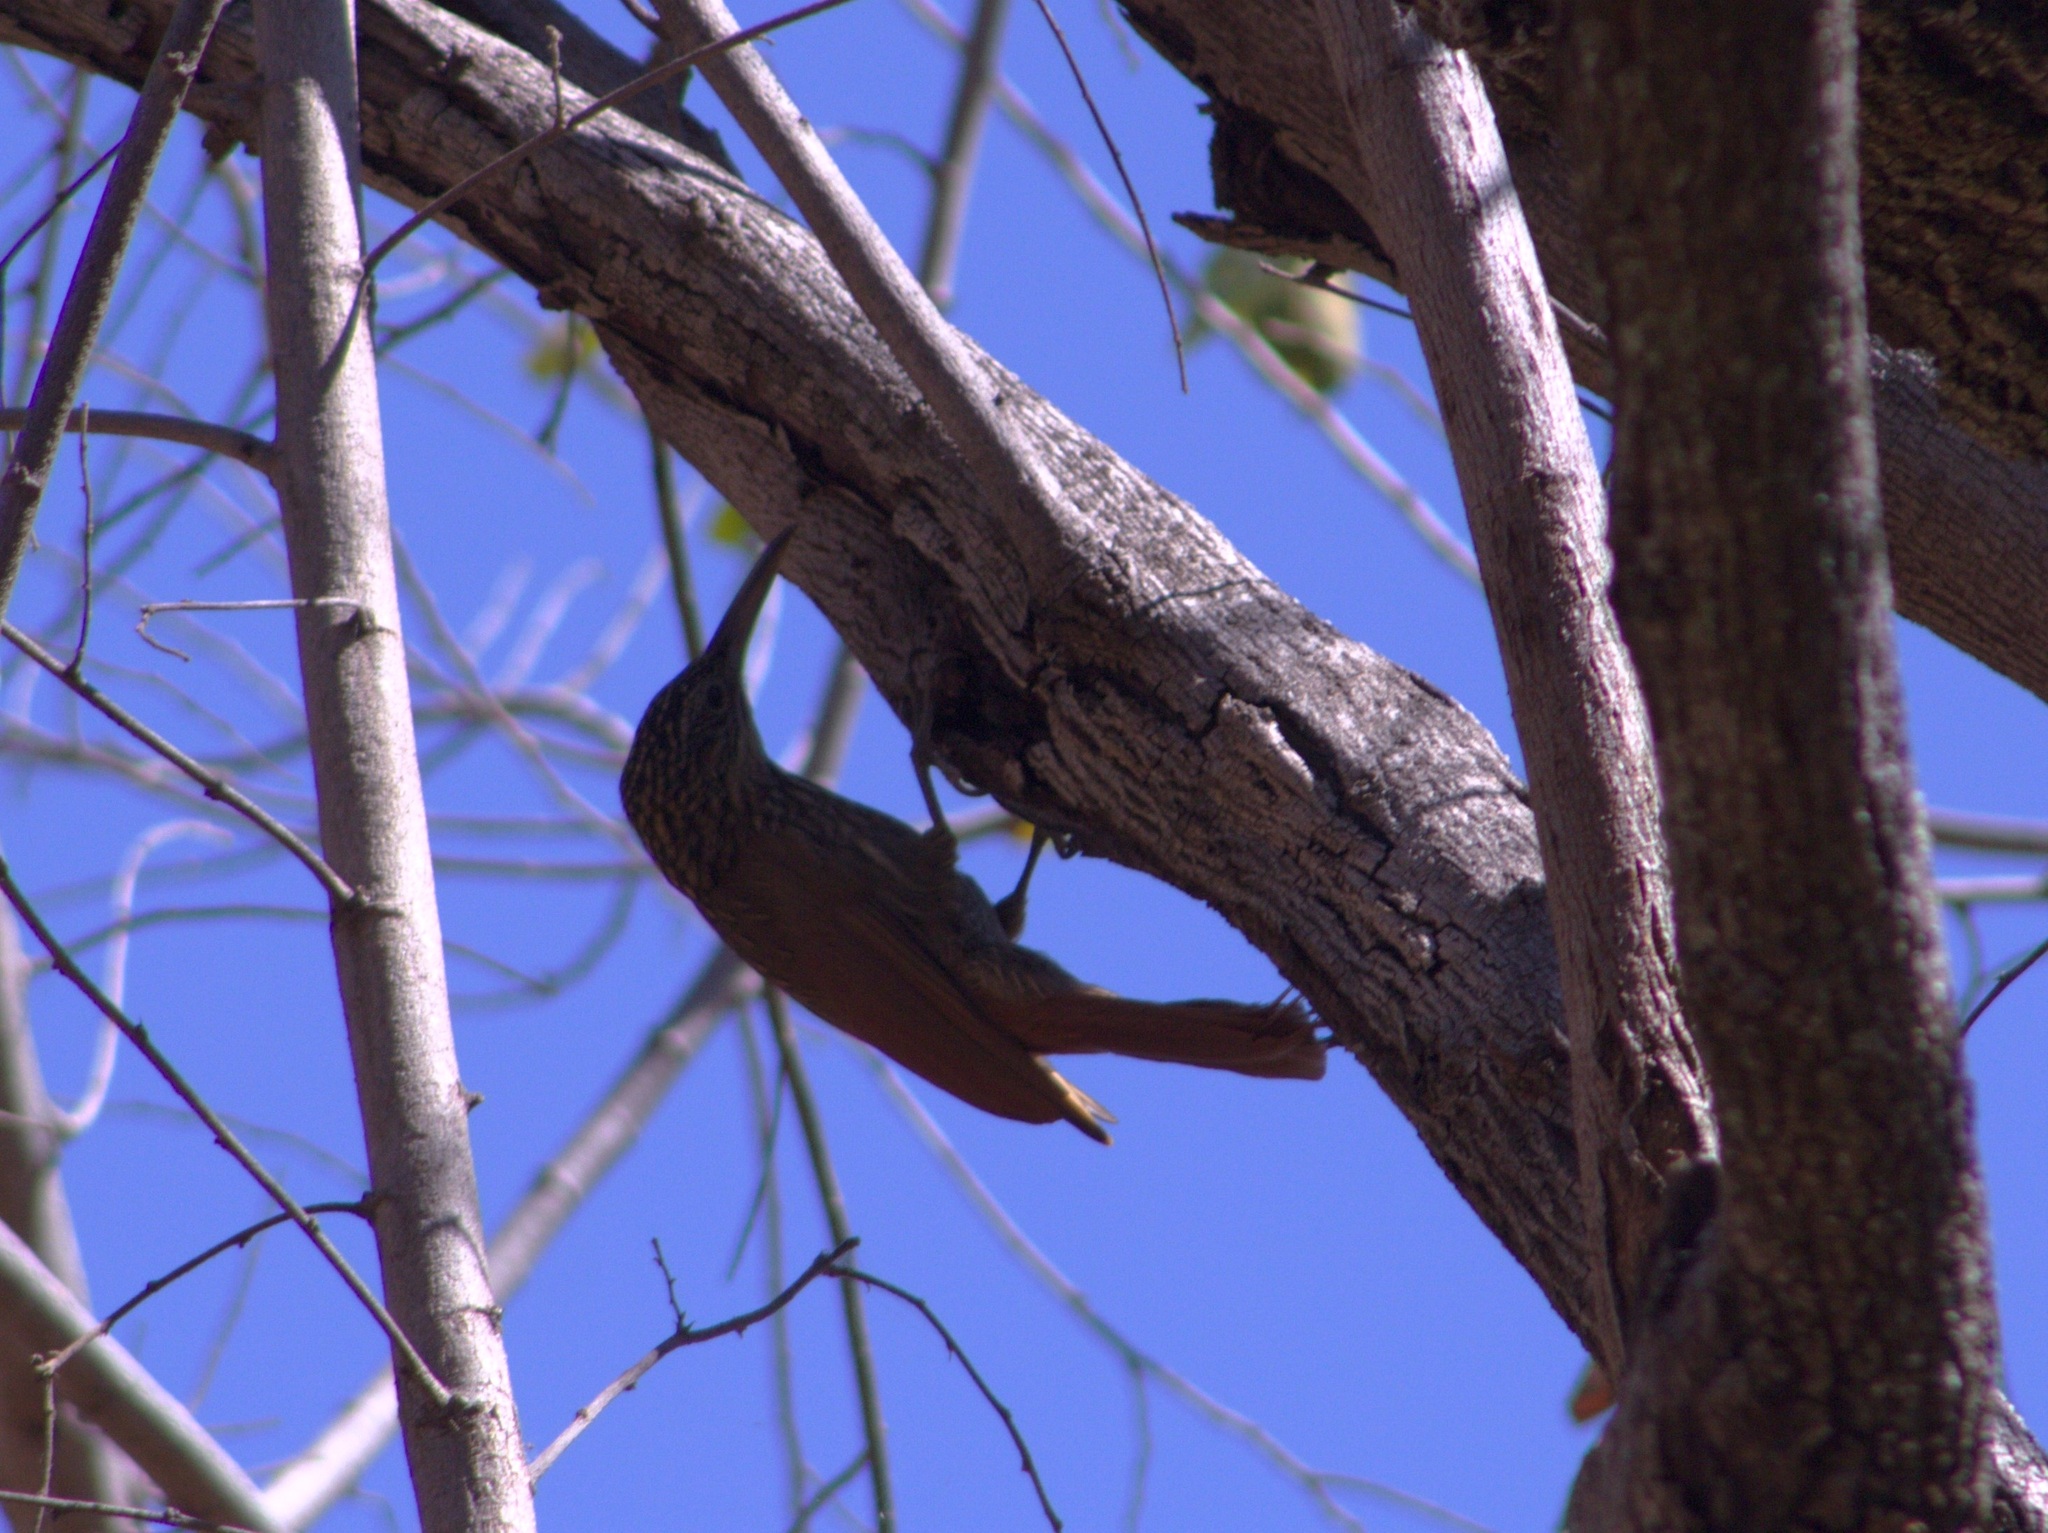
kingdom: Animalia
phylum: Chordata
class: Aves
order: Passeriformes
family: Furnariidae
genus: Xiphorhynchus
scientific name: Xiphorhynchus flavigaster
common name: Ivory-billed woodcreeper
